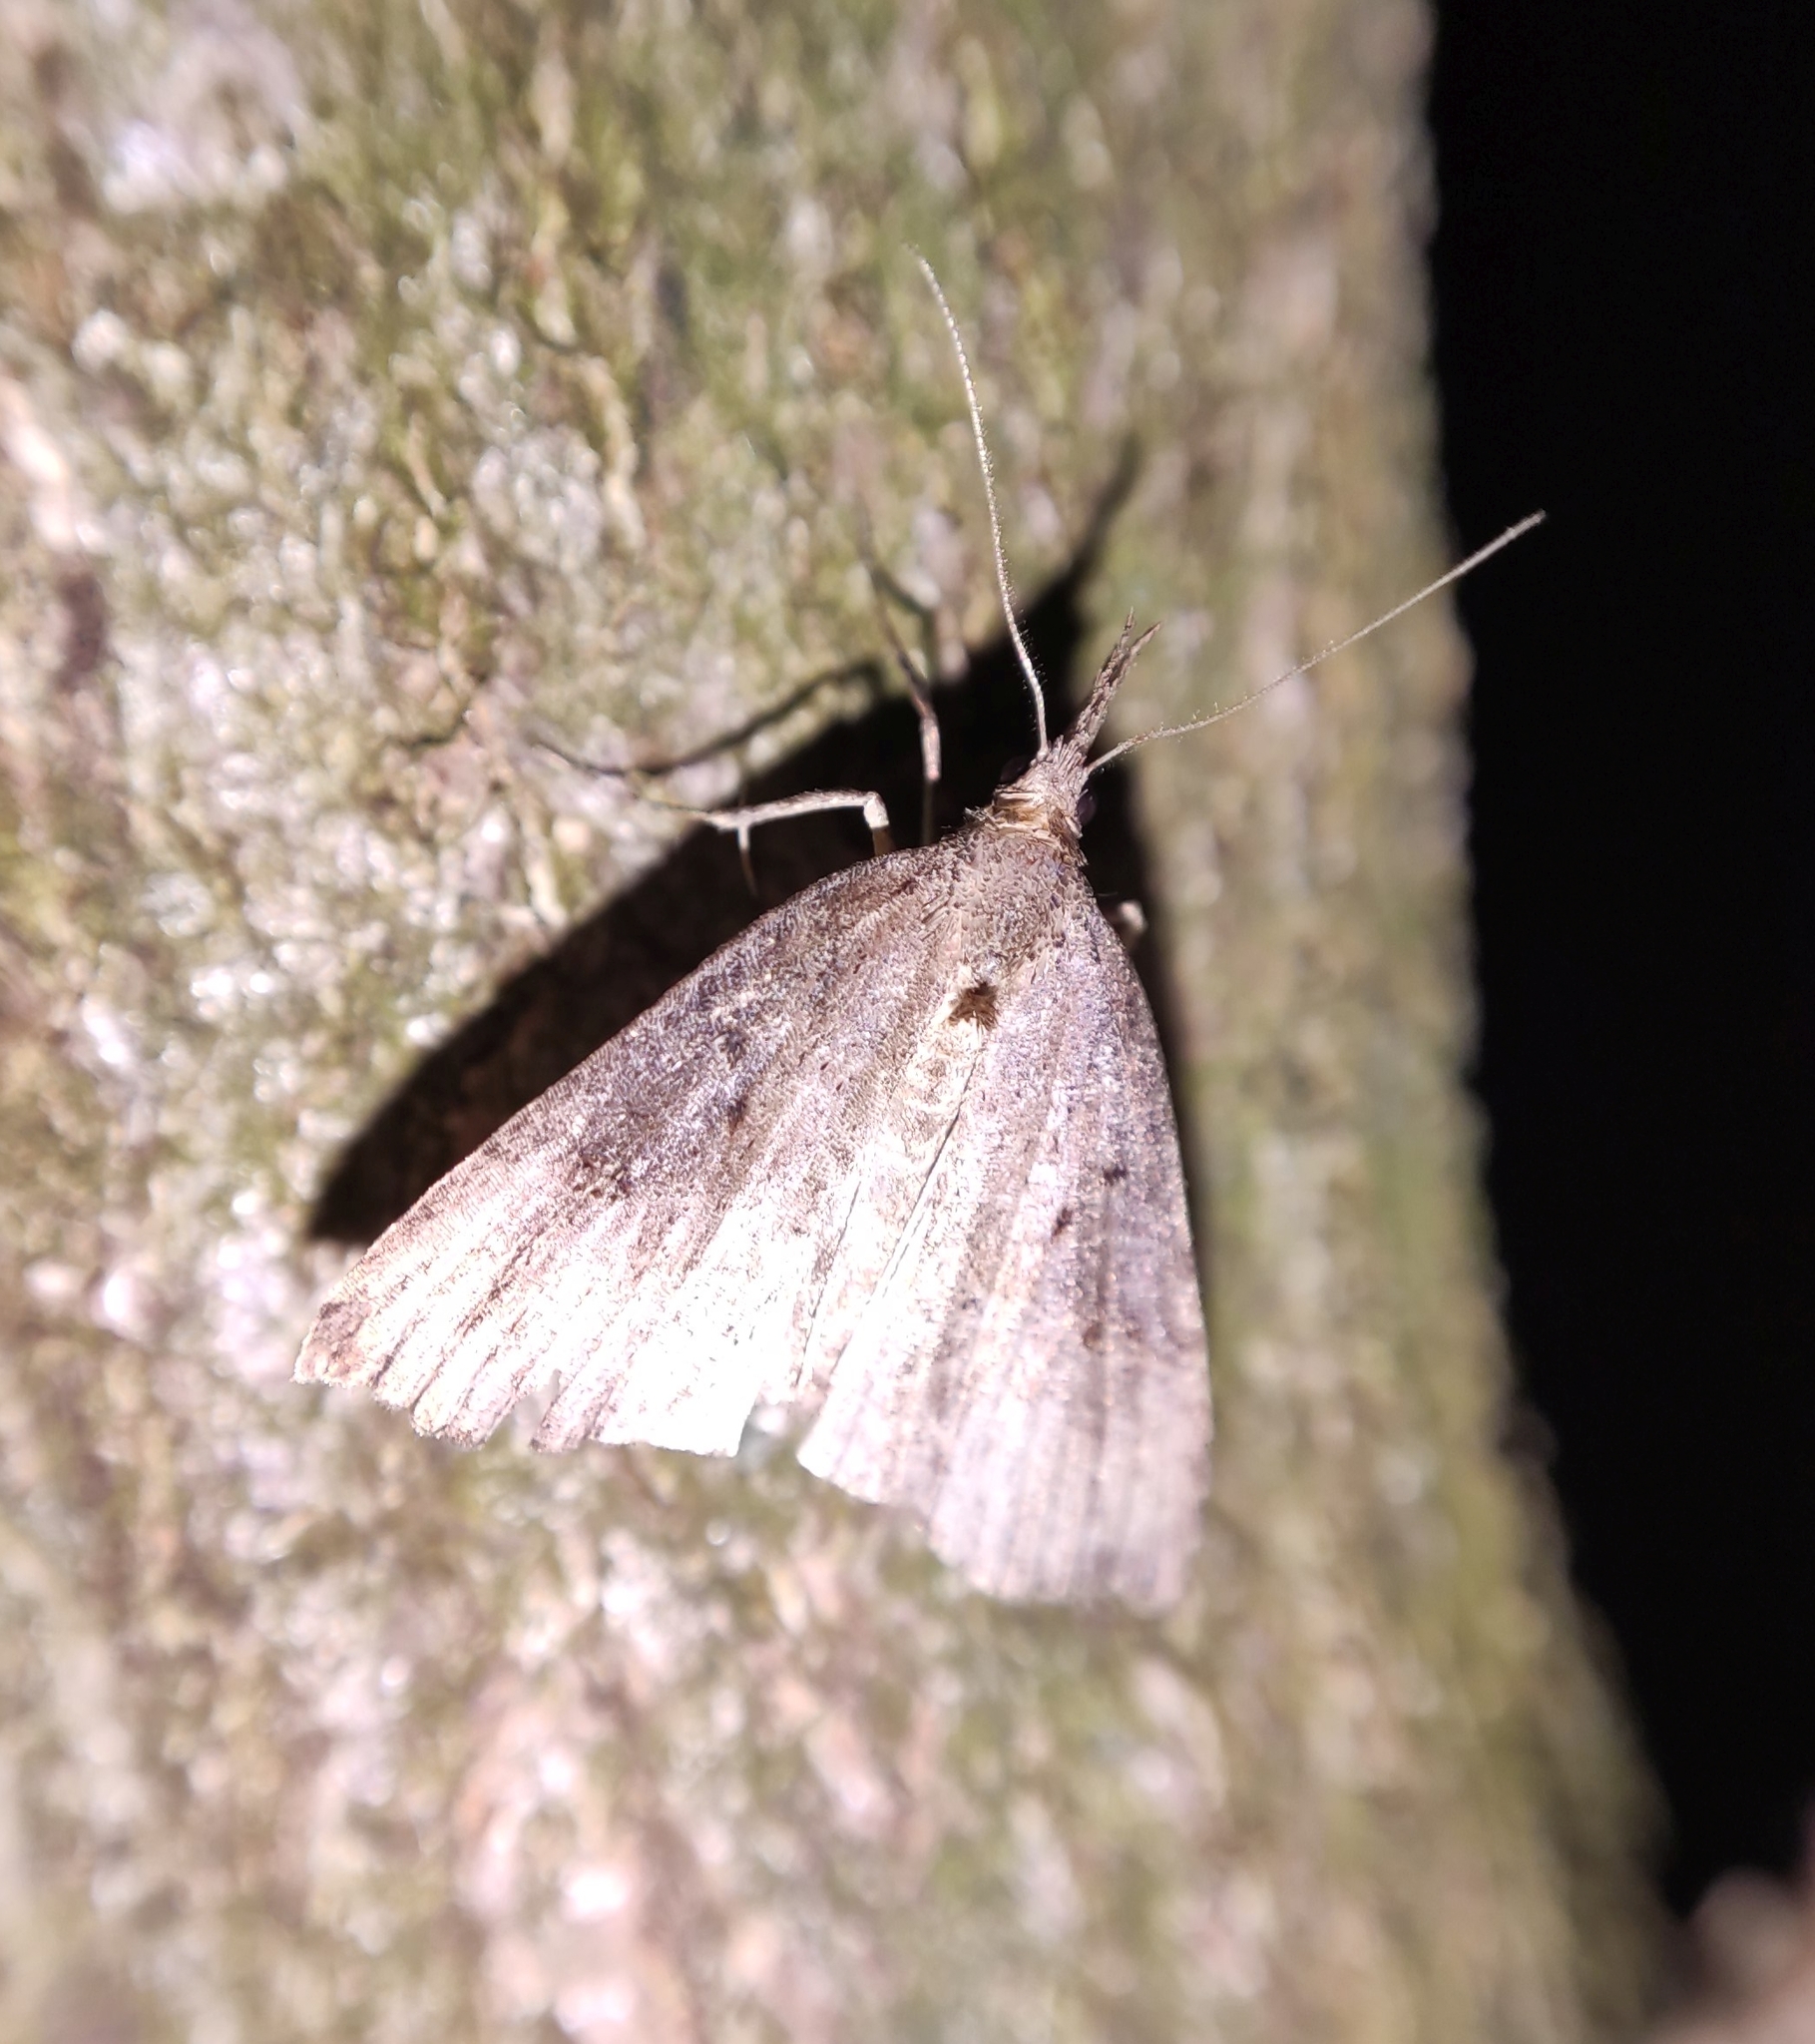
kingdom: Animalia
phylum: Arthropoda
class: Insecta
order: Lepidoptera
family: Erebidae
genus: Hypena
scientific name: Hypena rostralis
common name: Buttoned snout
